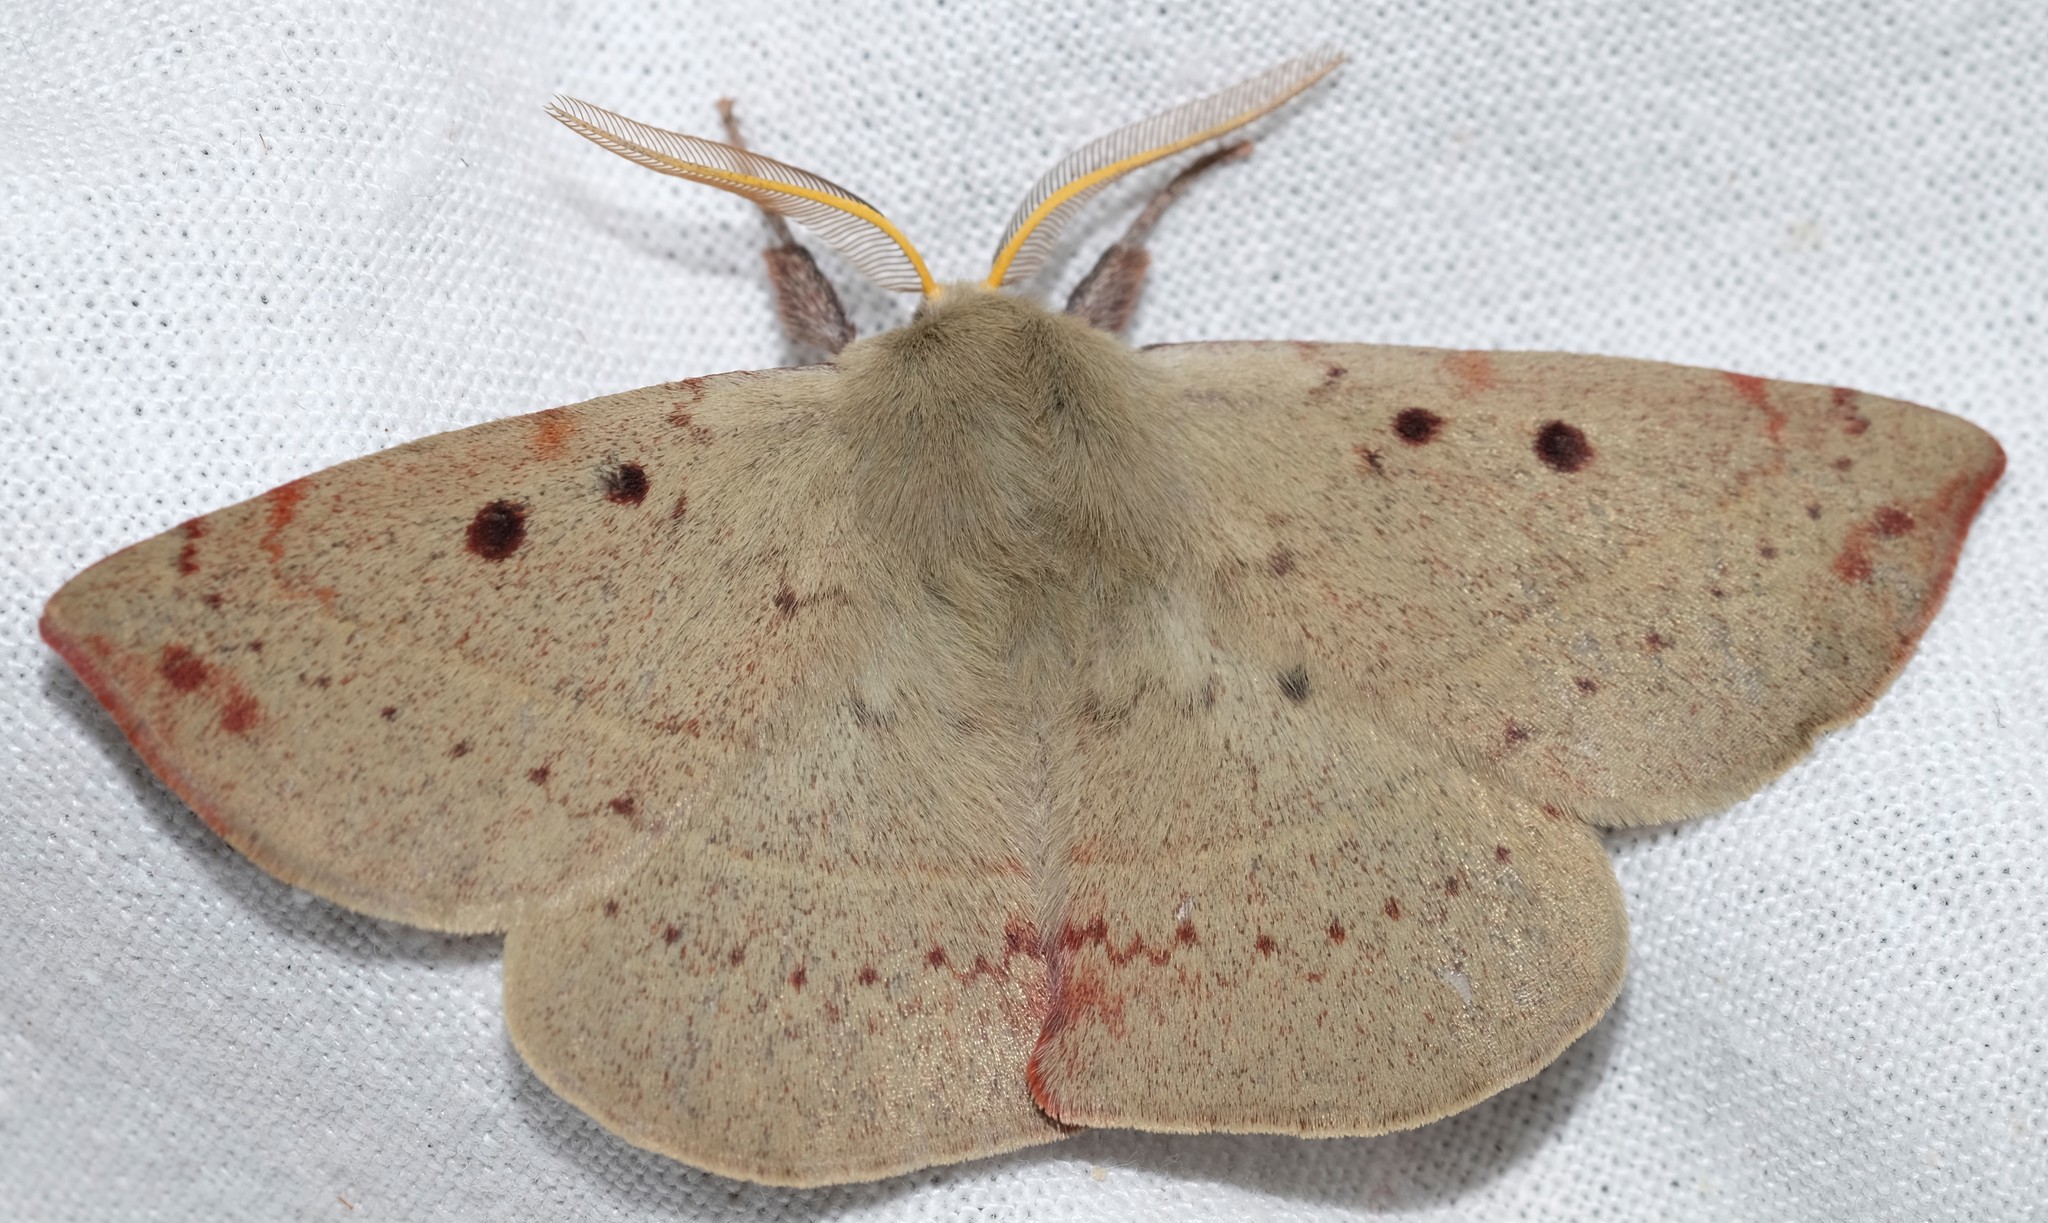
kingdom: Animalia
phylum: Arthropoda
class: Insecta
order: Lepidoptera
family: Anthelidae
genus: Anthela
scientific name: Anthela acuta
